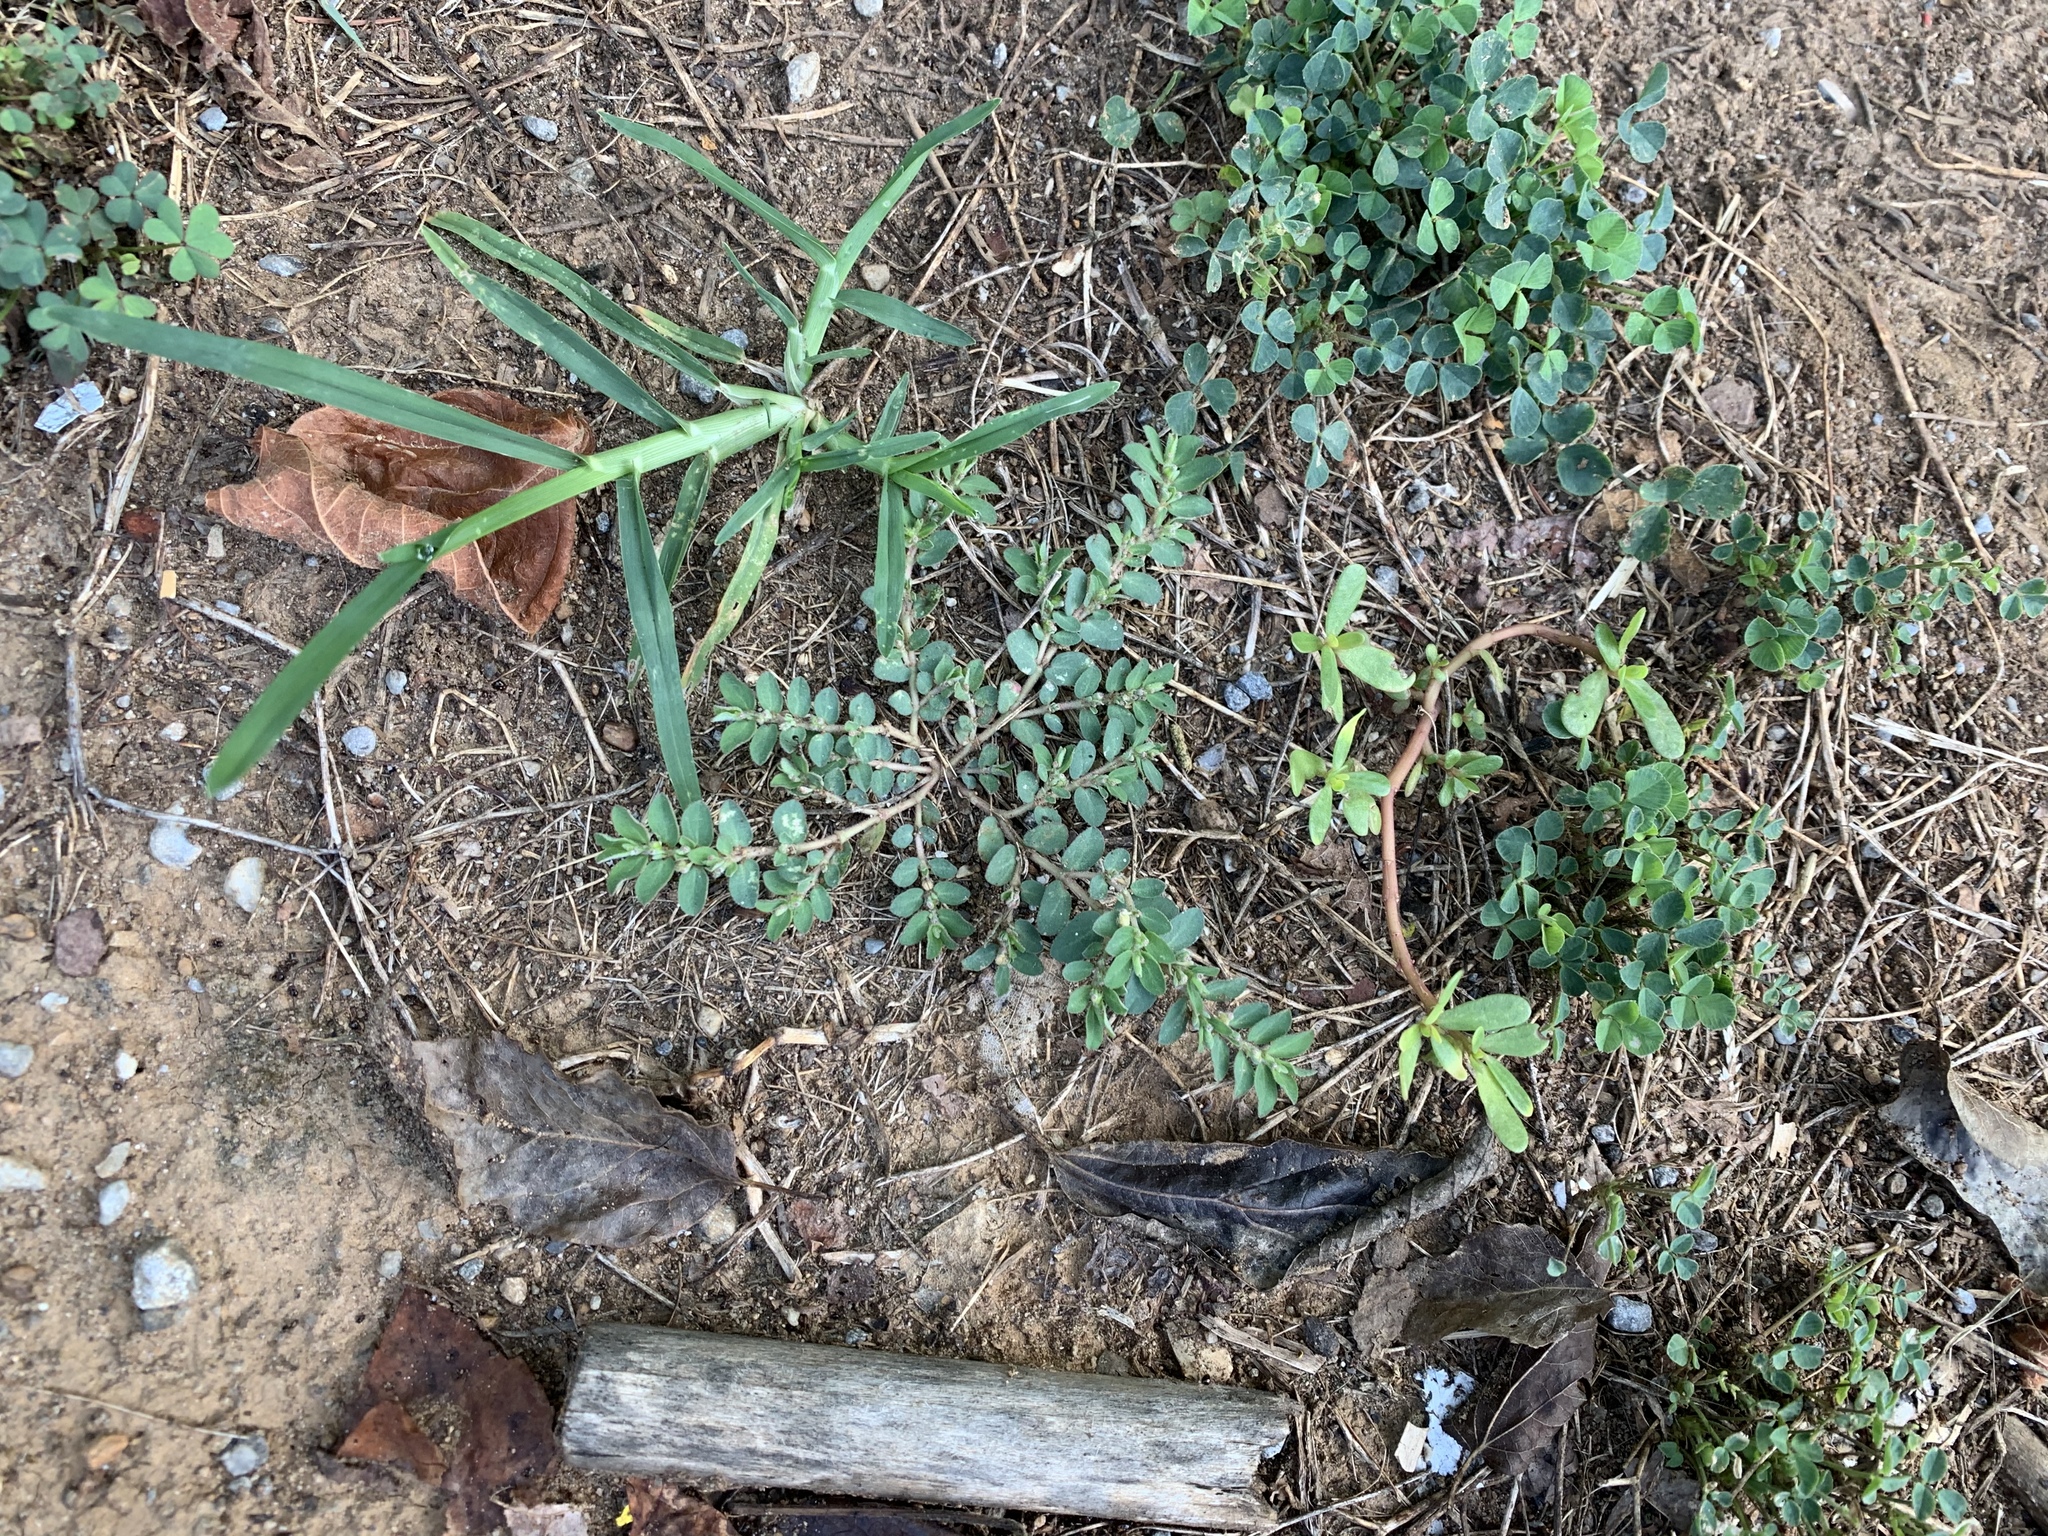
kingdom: Plantae
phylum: Tracheophyta
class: Magnoliopsida
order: Malpighiales
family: Euphorbiaceae
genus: Euphorbia
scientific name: Euphorbia prostrata
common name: Prostrate sandmat
